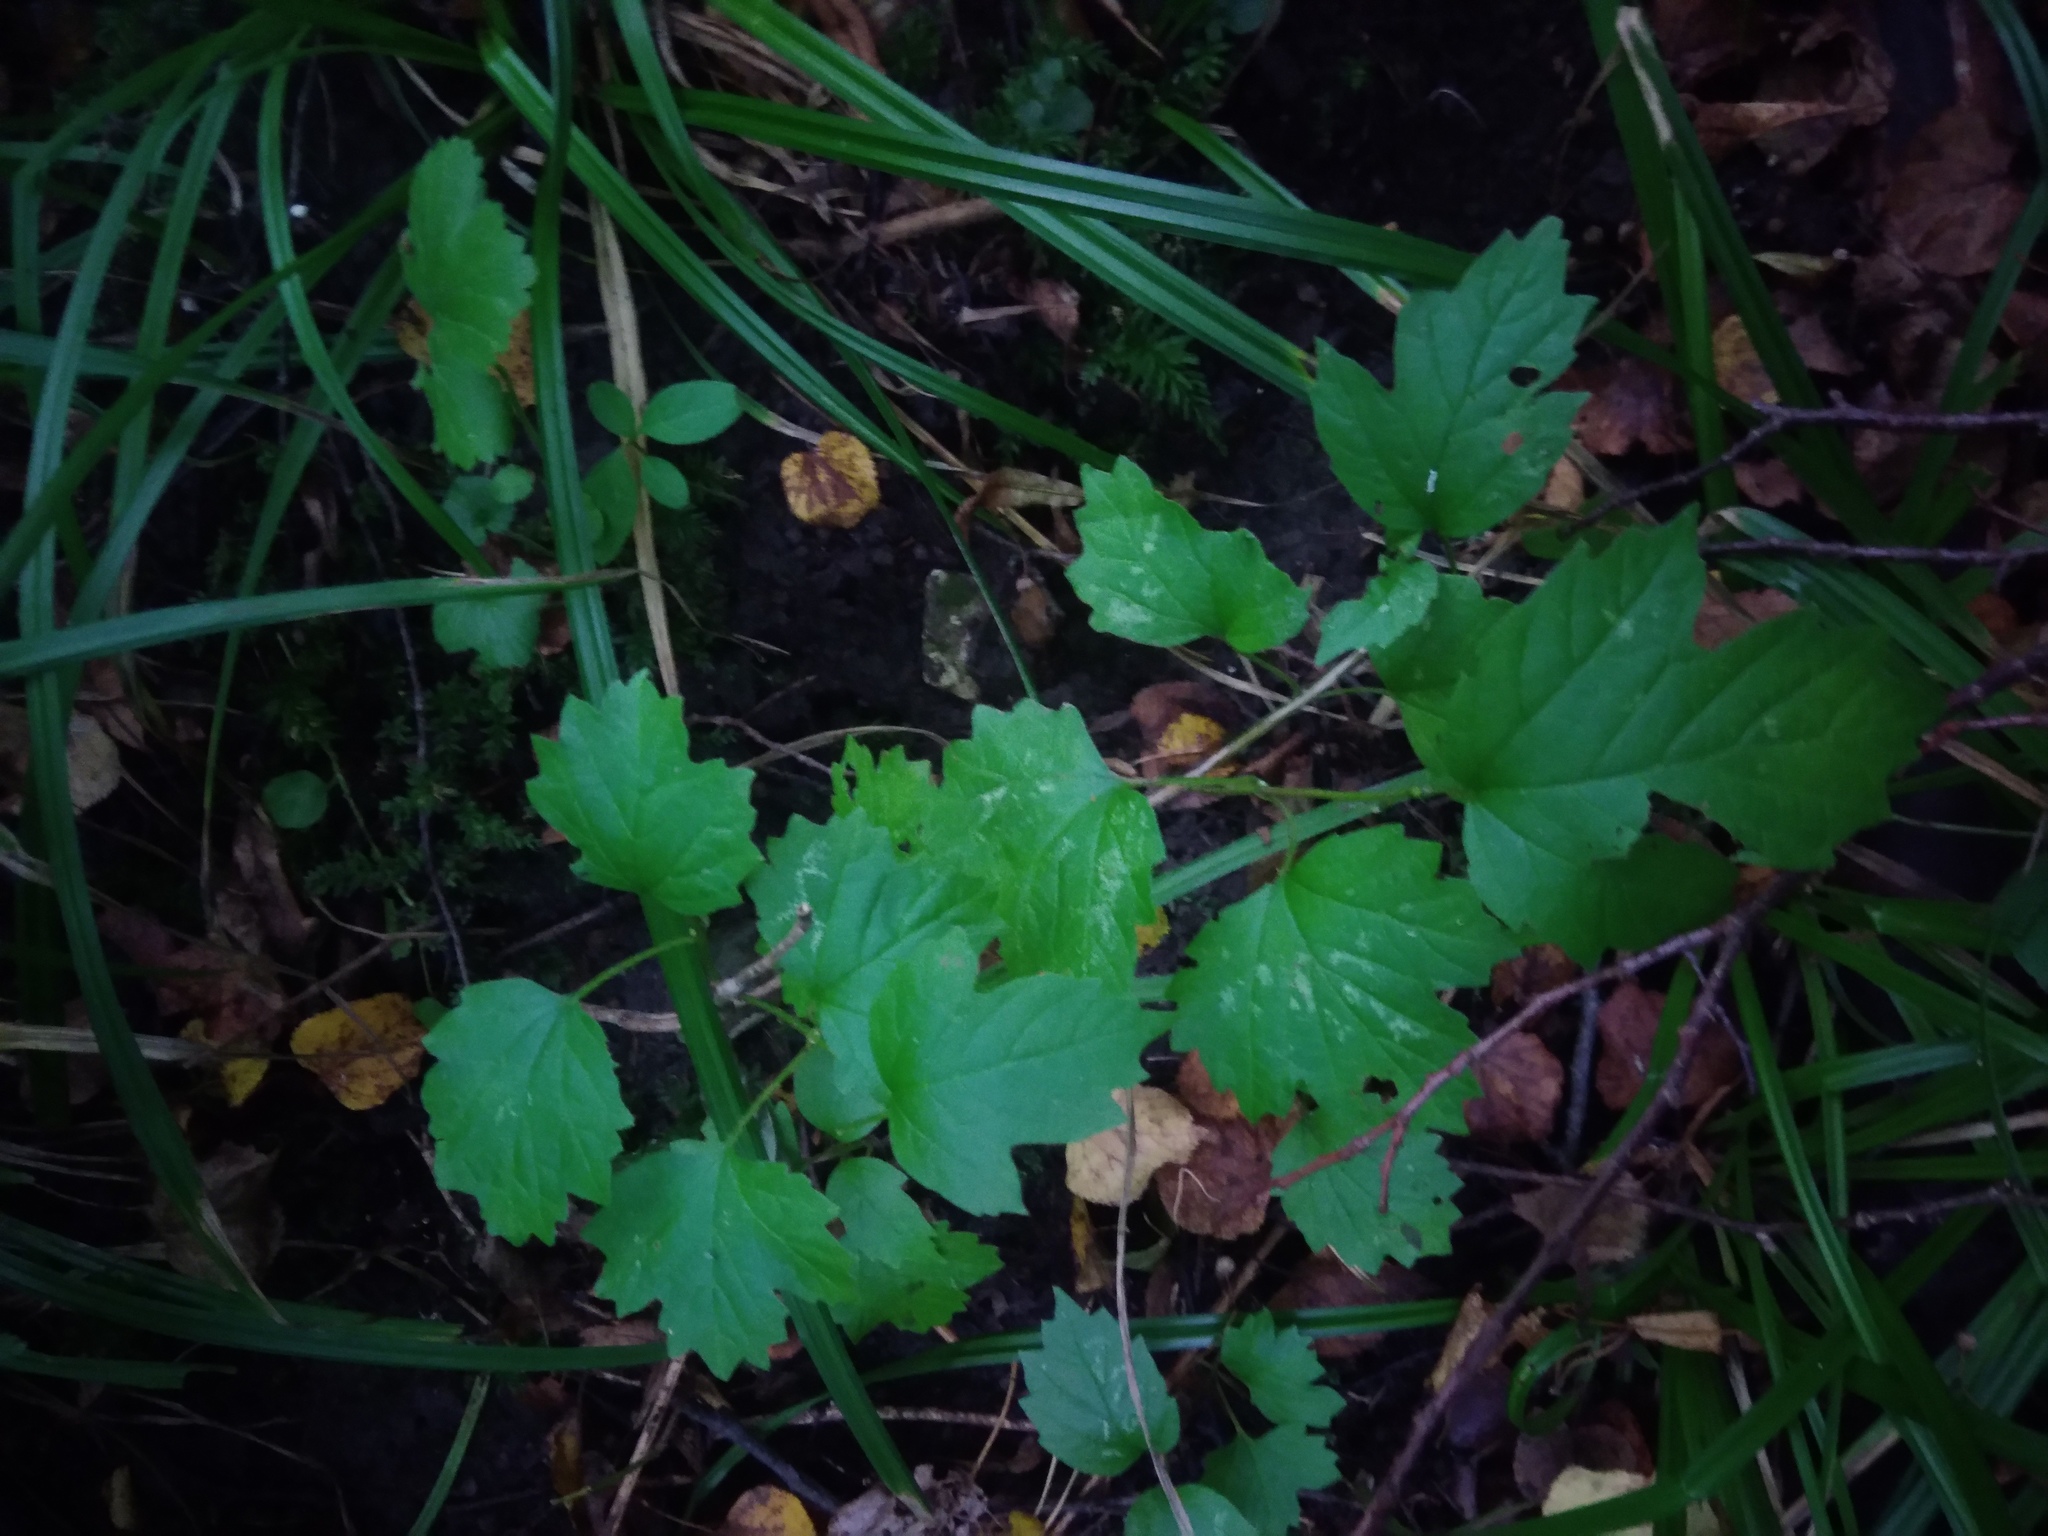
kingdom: Plantae
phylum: Tracheophyta
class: Magnoliopsida
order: Dipsacales
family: Viburnaceae
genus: Viburnum
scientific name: Viburnum opulus
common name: Guelder-rose
